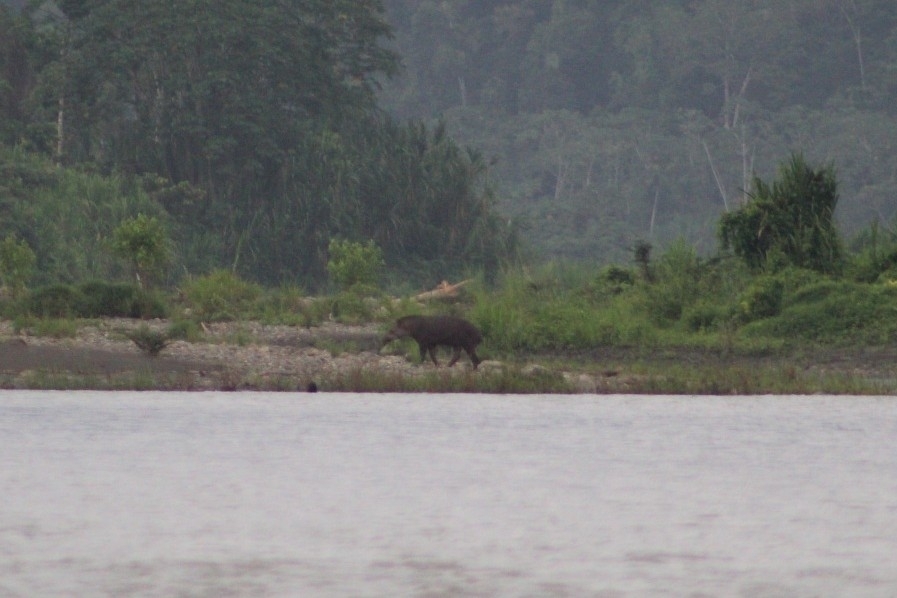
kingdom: Animalia
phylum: Chordata
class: Mammalia
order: Perissodactyla
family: Tapiridae
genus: Tapirus
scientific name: Tapirus terrestris
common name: Brazilian tapir
